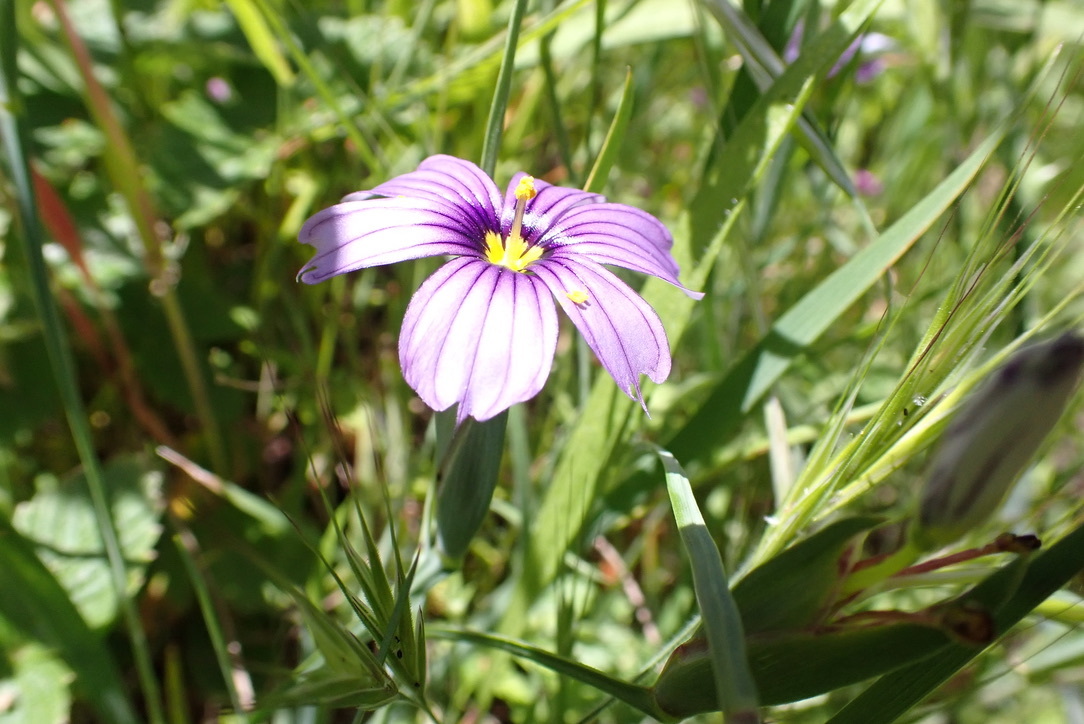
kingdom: Plantae
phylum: Tracheophyta
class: Liliopsida
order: Asparagales
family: Iridaceae
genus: Sisyrinchium
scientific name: Sisyrinchium bellum
